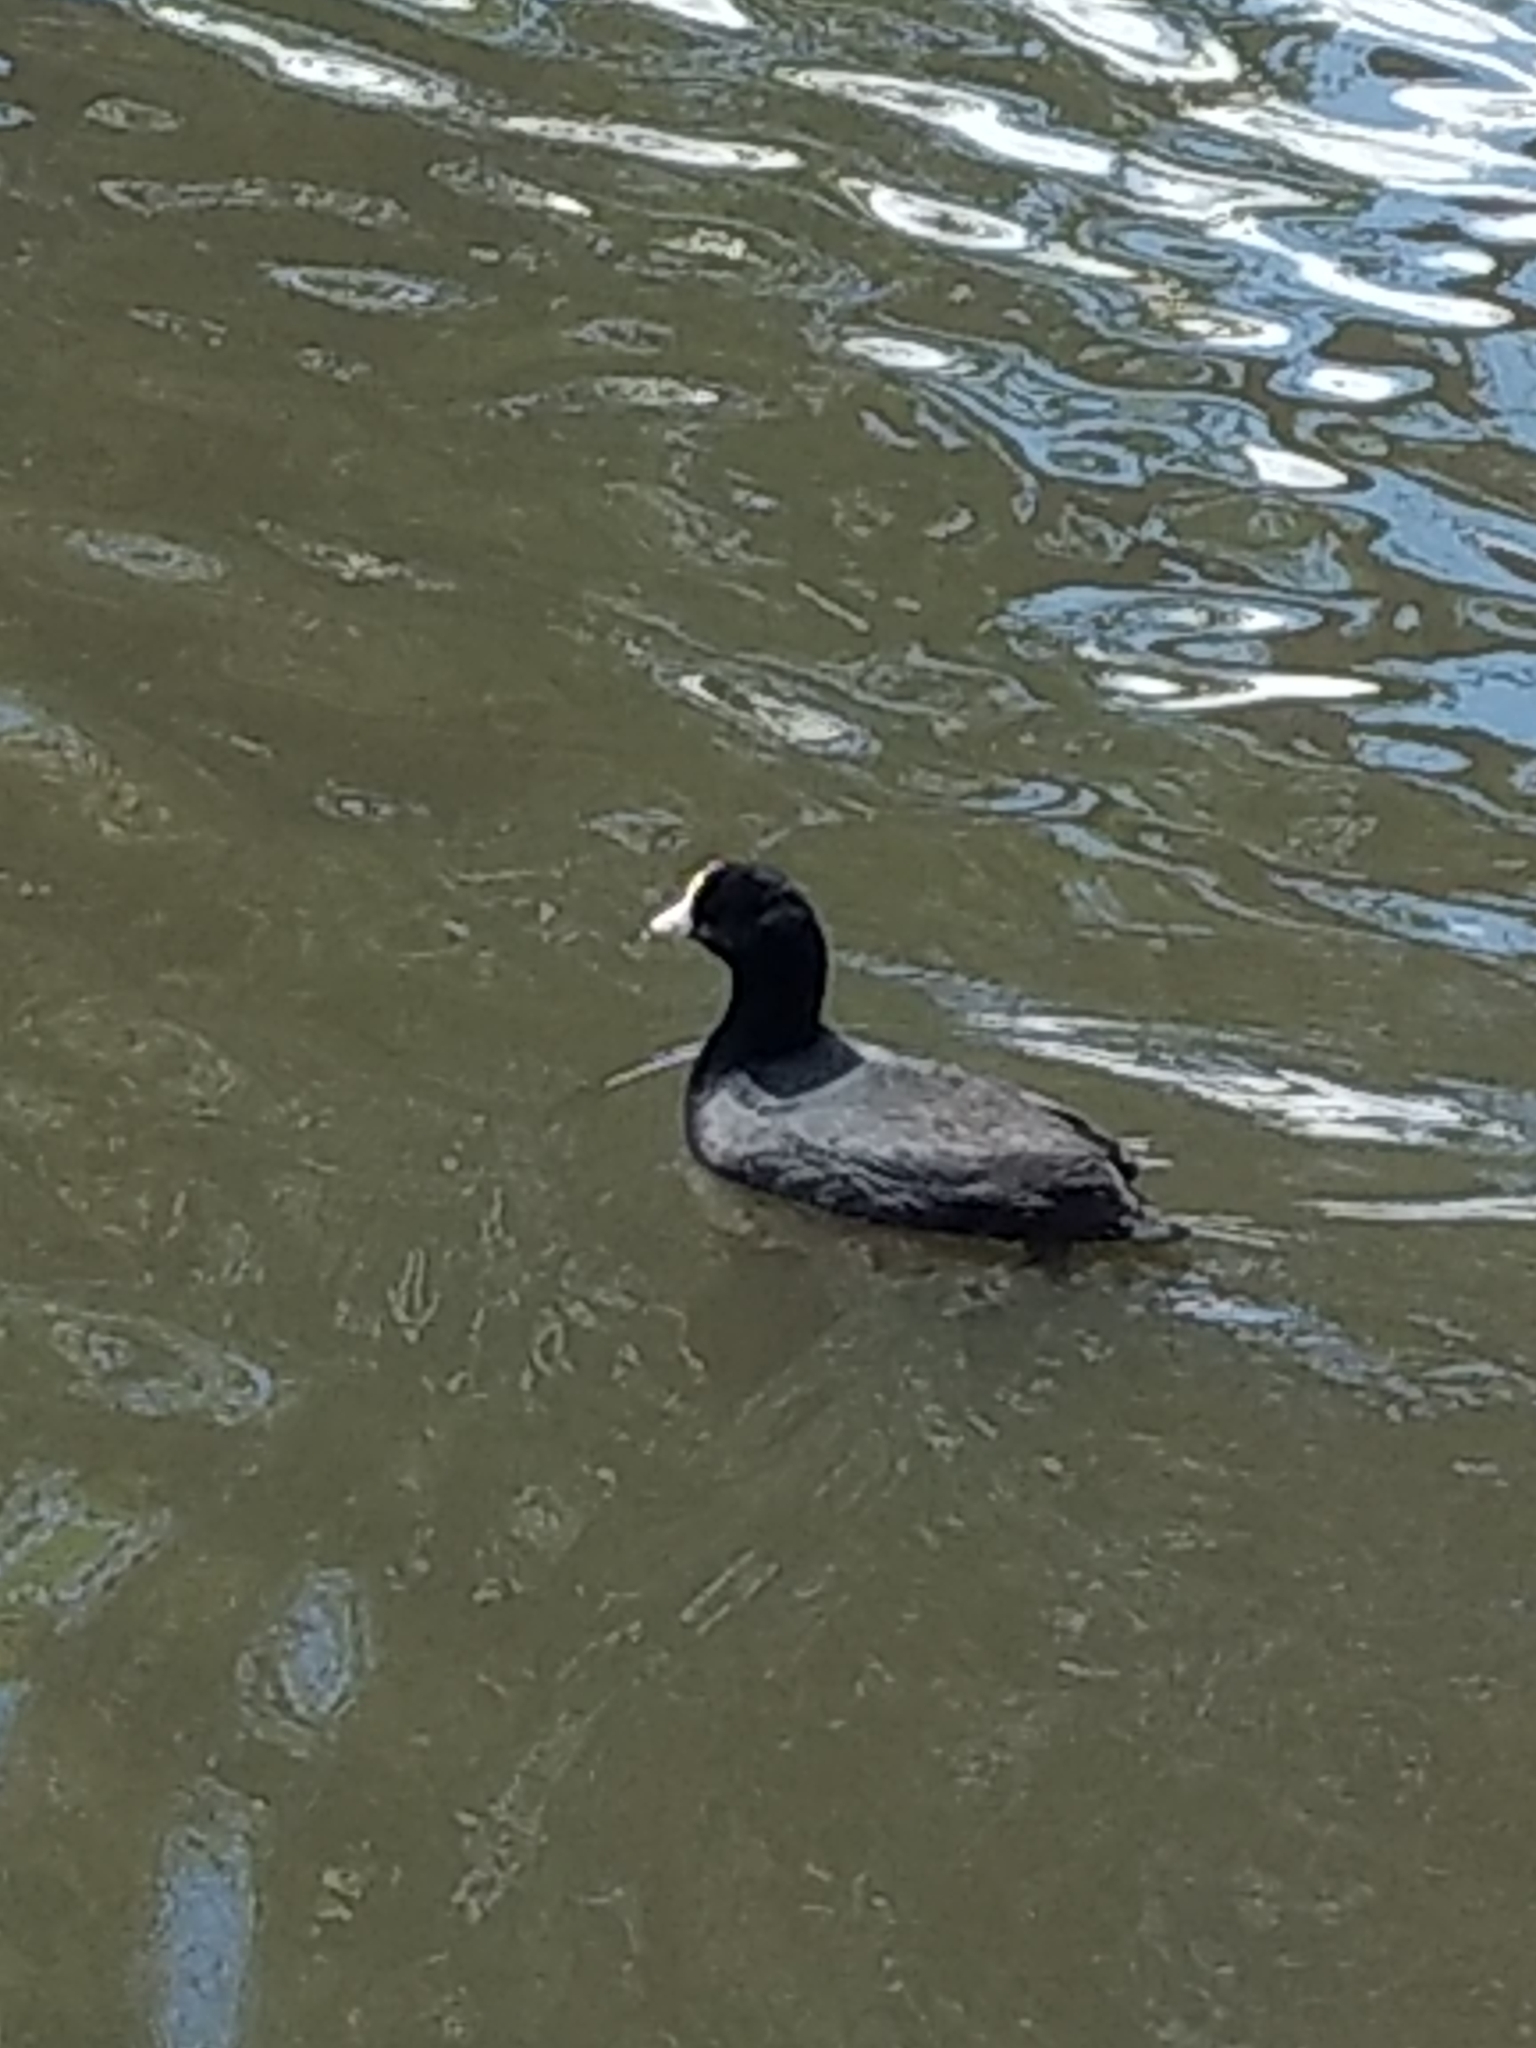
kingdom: Animalia
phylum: Chordata
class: Aves
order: Gruiformes
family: Rallidae
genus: Fulica
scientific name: Fulica americana
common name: American coot
